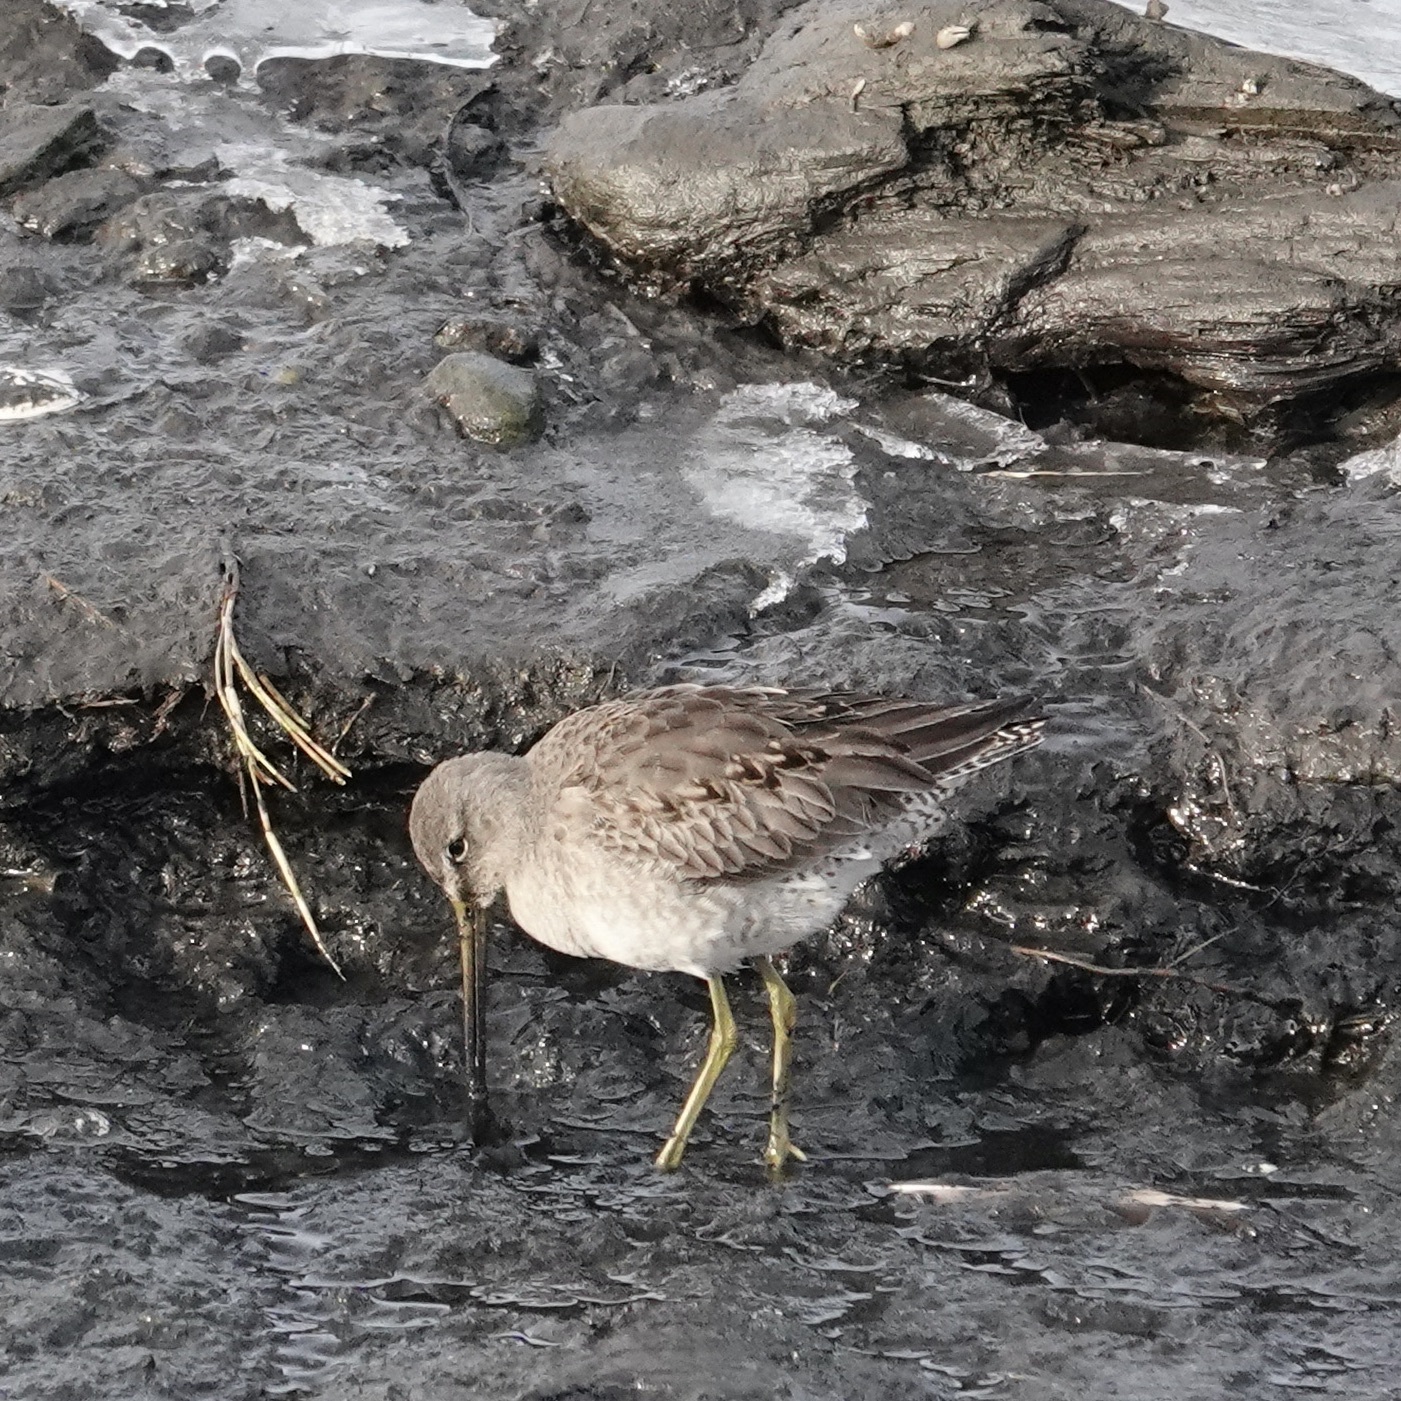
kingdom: Animalia
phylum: Chordata
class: Aves
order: Charadriiformes
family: Scolopacidae
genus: Limnodromus
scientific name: Limnodromus scolopaceus
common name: Long-billed dowitcher
